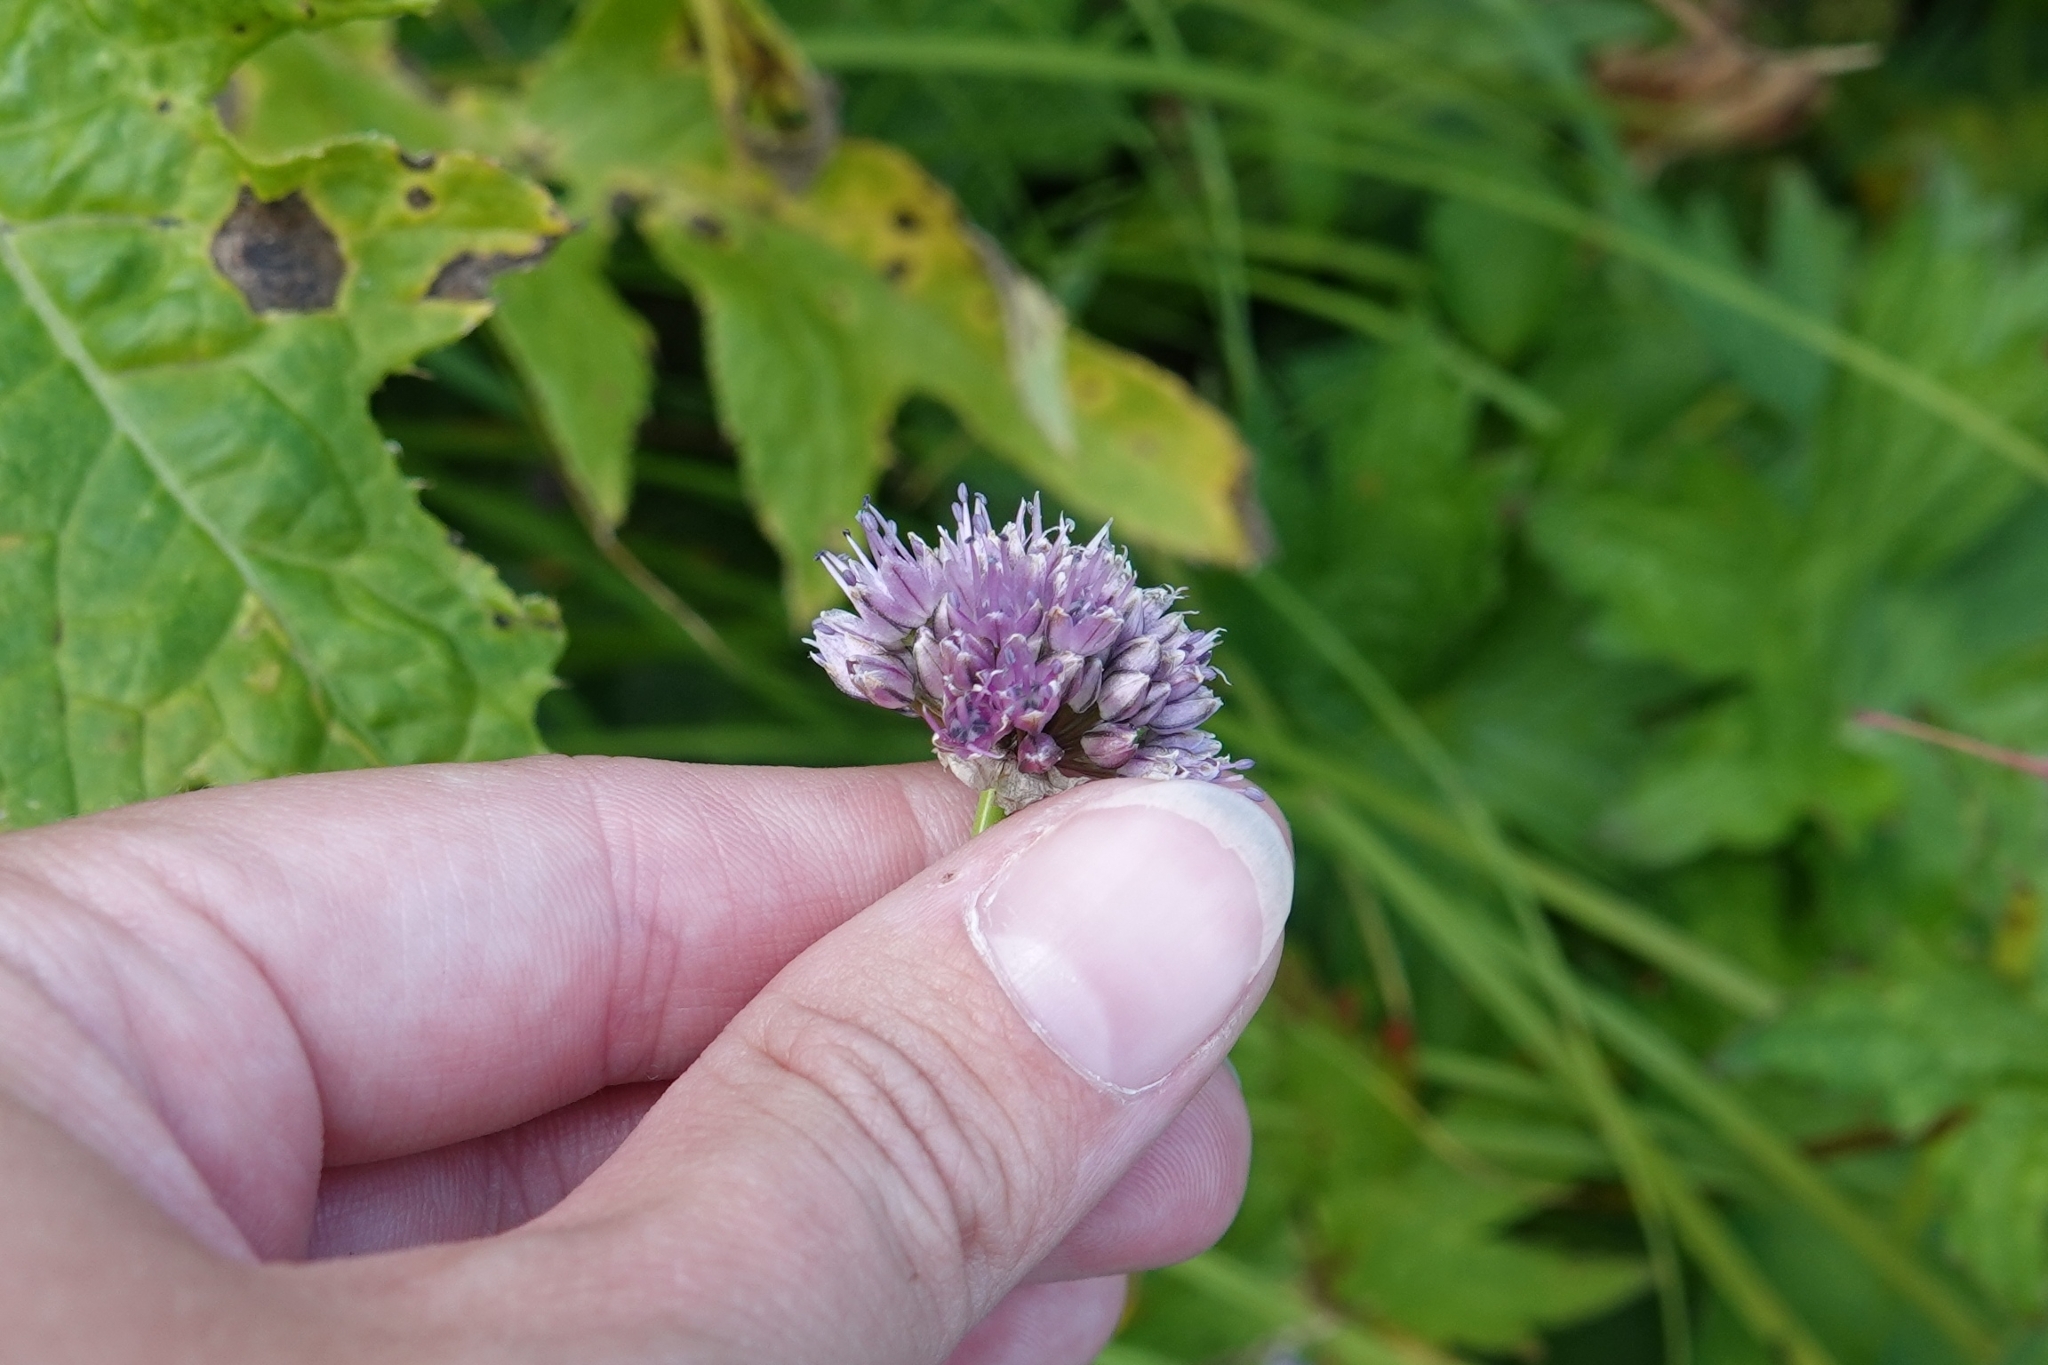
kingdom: Plantae
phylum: Tracheophyta
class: Liliopsida
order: Asparagales
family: Amaryllidaceae
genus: Allium
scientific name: Allium strictum
